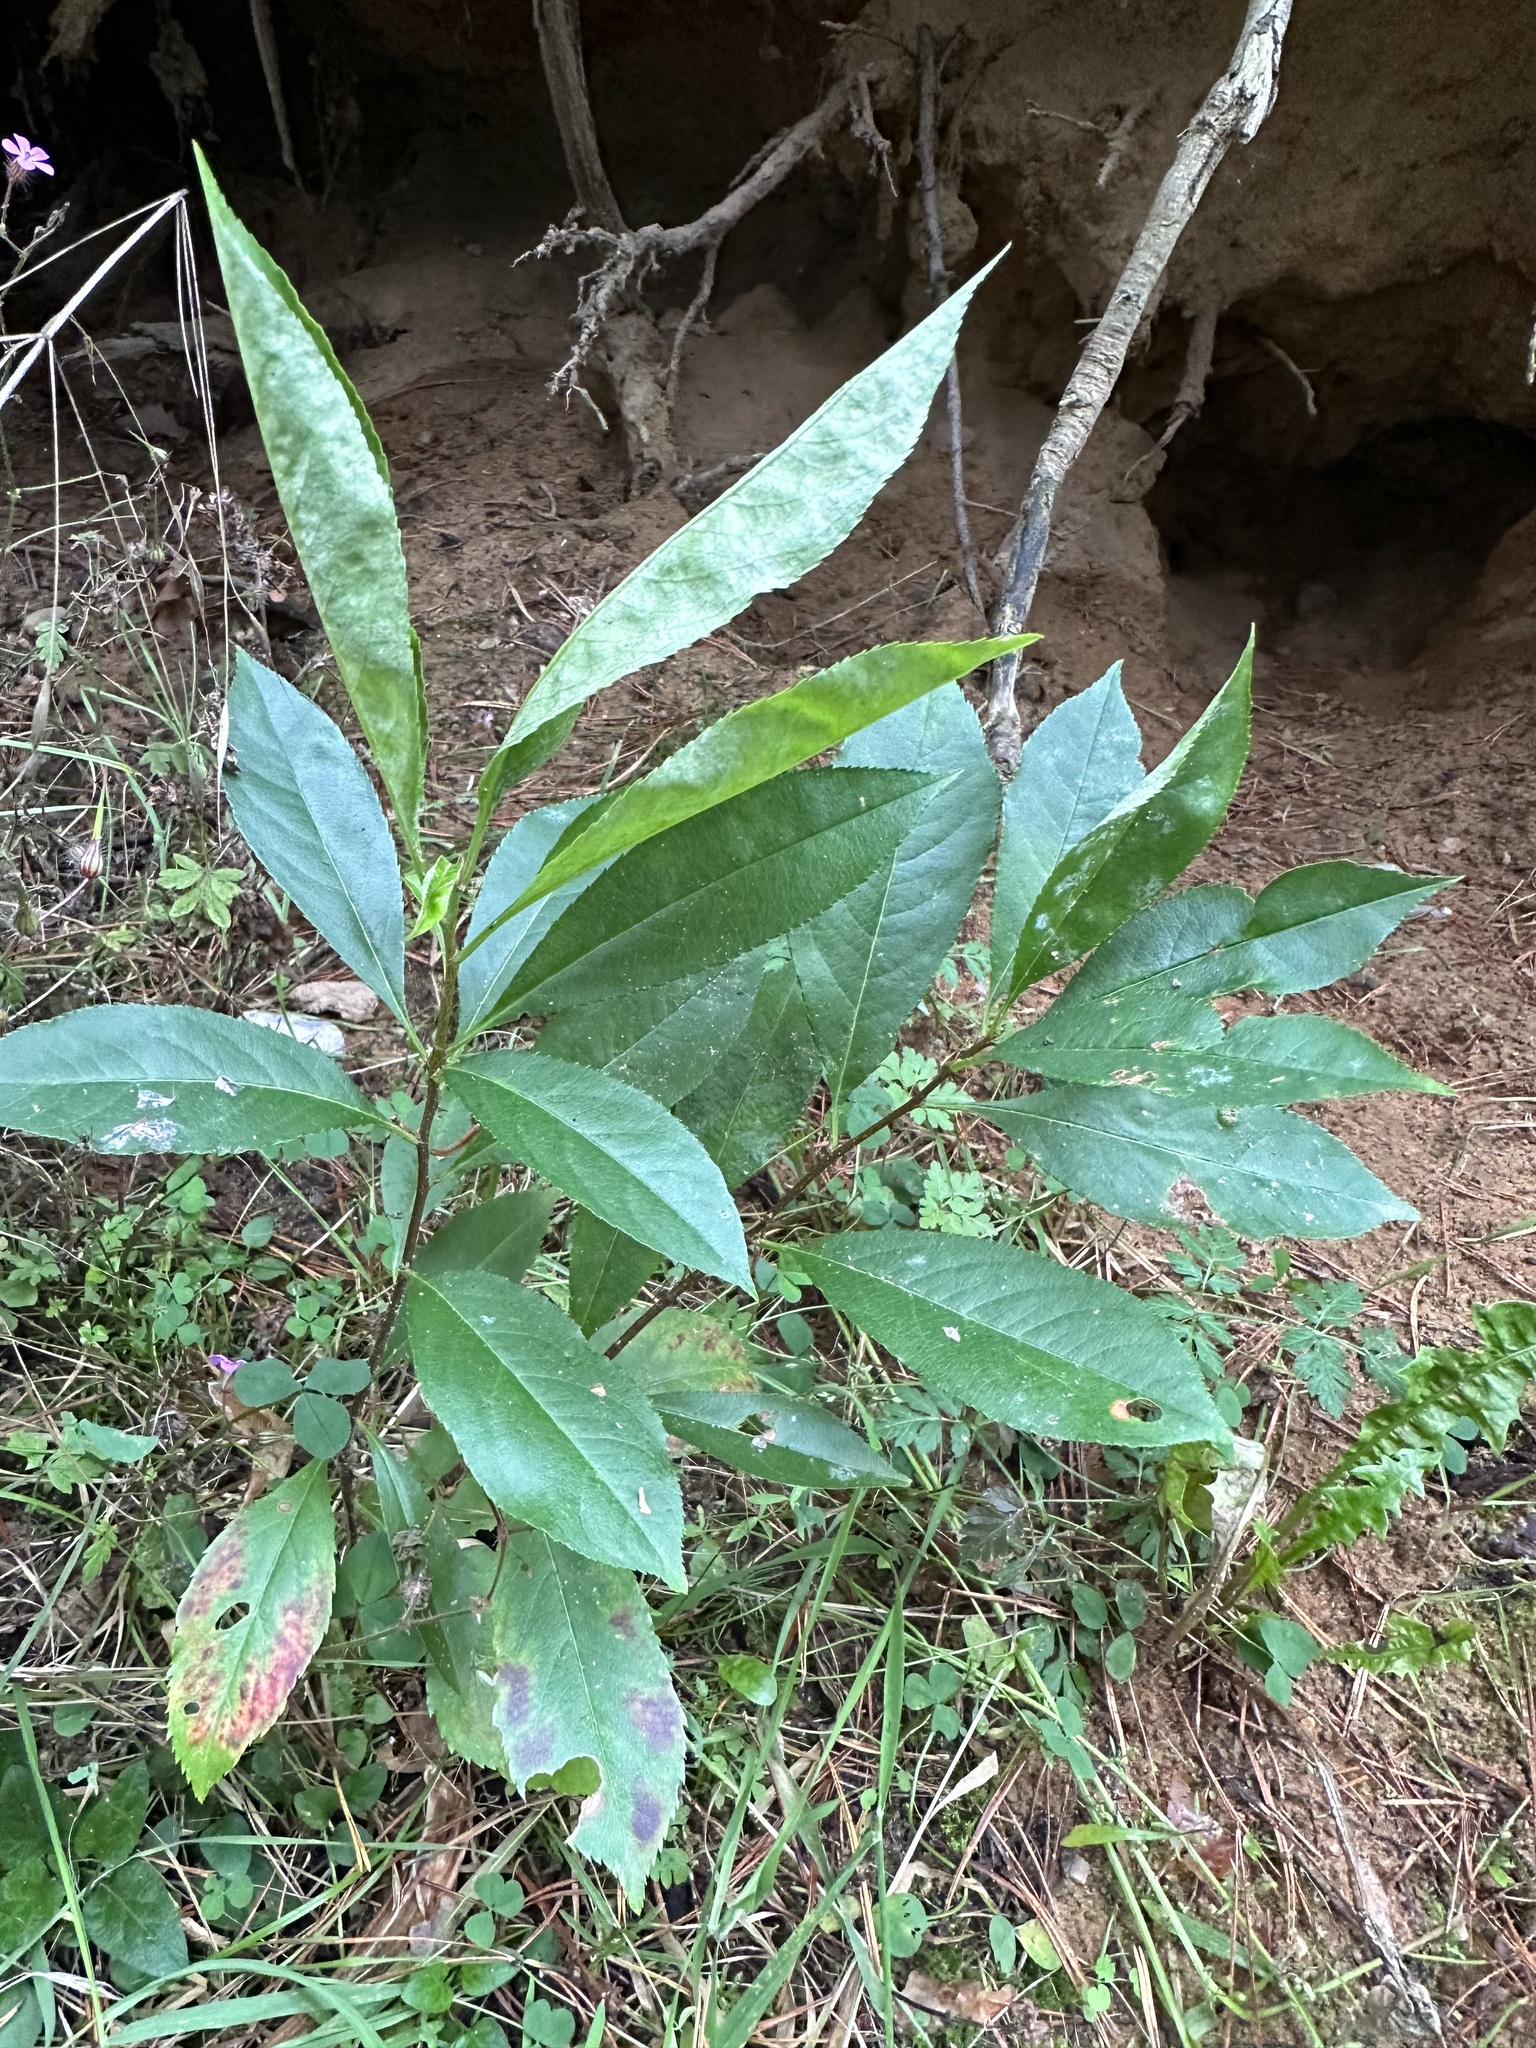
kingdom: Plantae
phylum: Tracheophyta
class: Magnoliopsida
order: Rosales
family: Rosaceae
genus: Prunus
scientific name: Prunus serotina
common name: Black cherry
